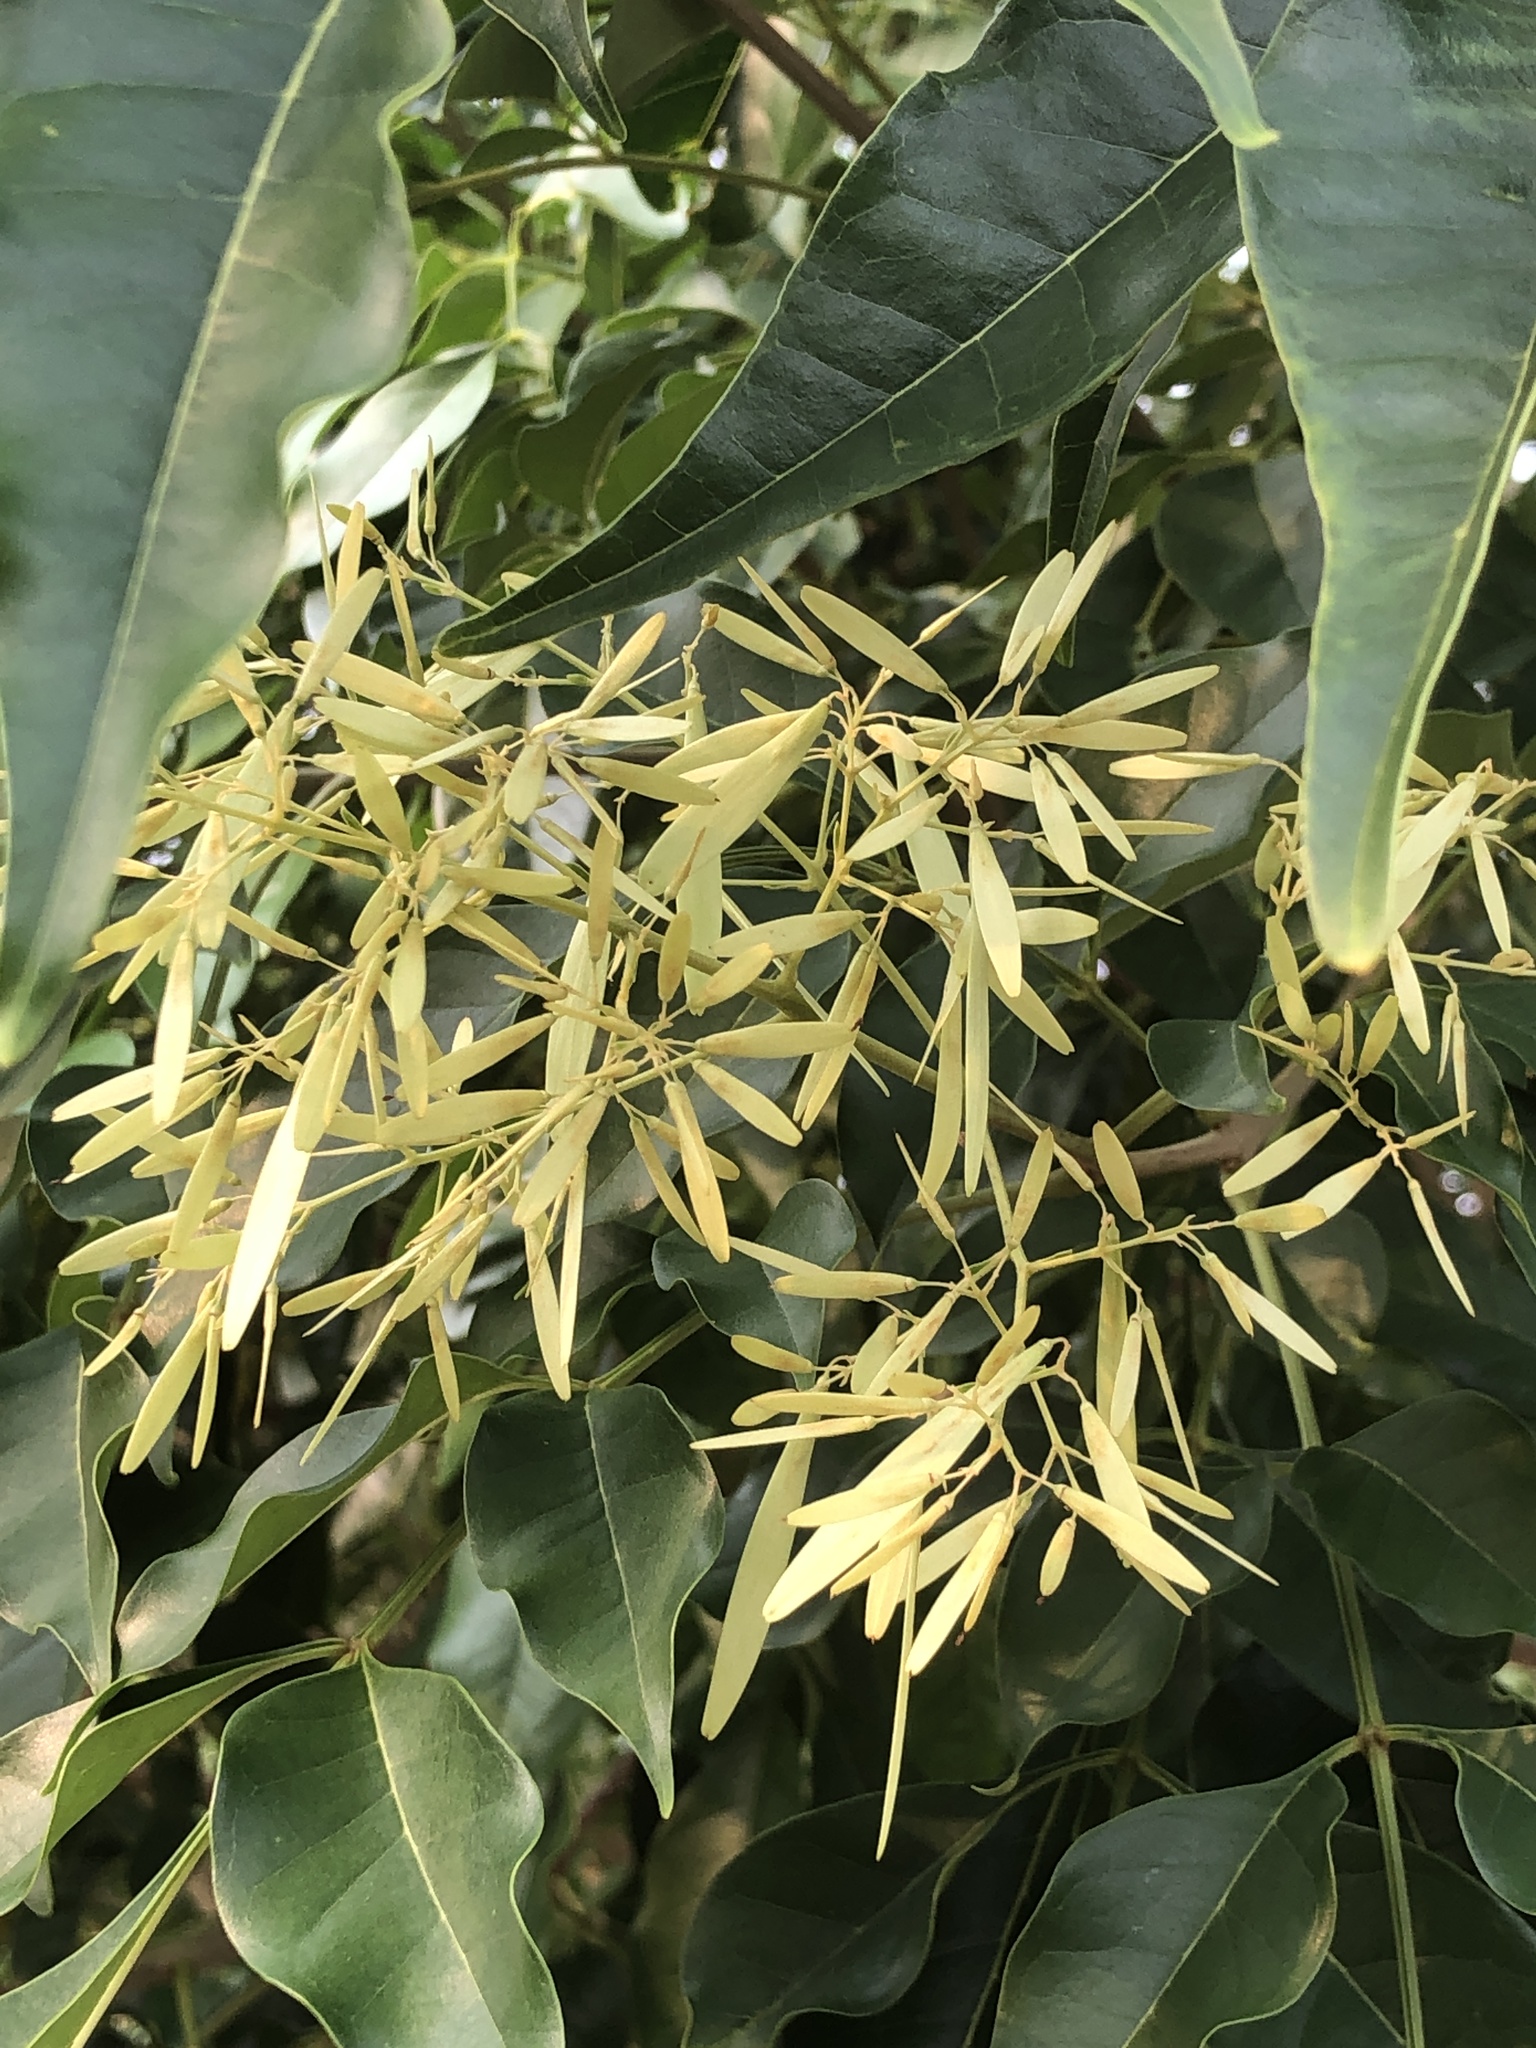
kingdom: Plantae
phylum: Tracheophyta
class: Magnoliopsida
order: Lamiales
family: Oleaceae
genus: Fraxinus
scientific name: Fraxinus griffithii
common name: Himalayan ash
